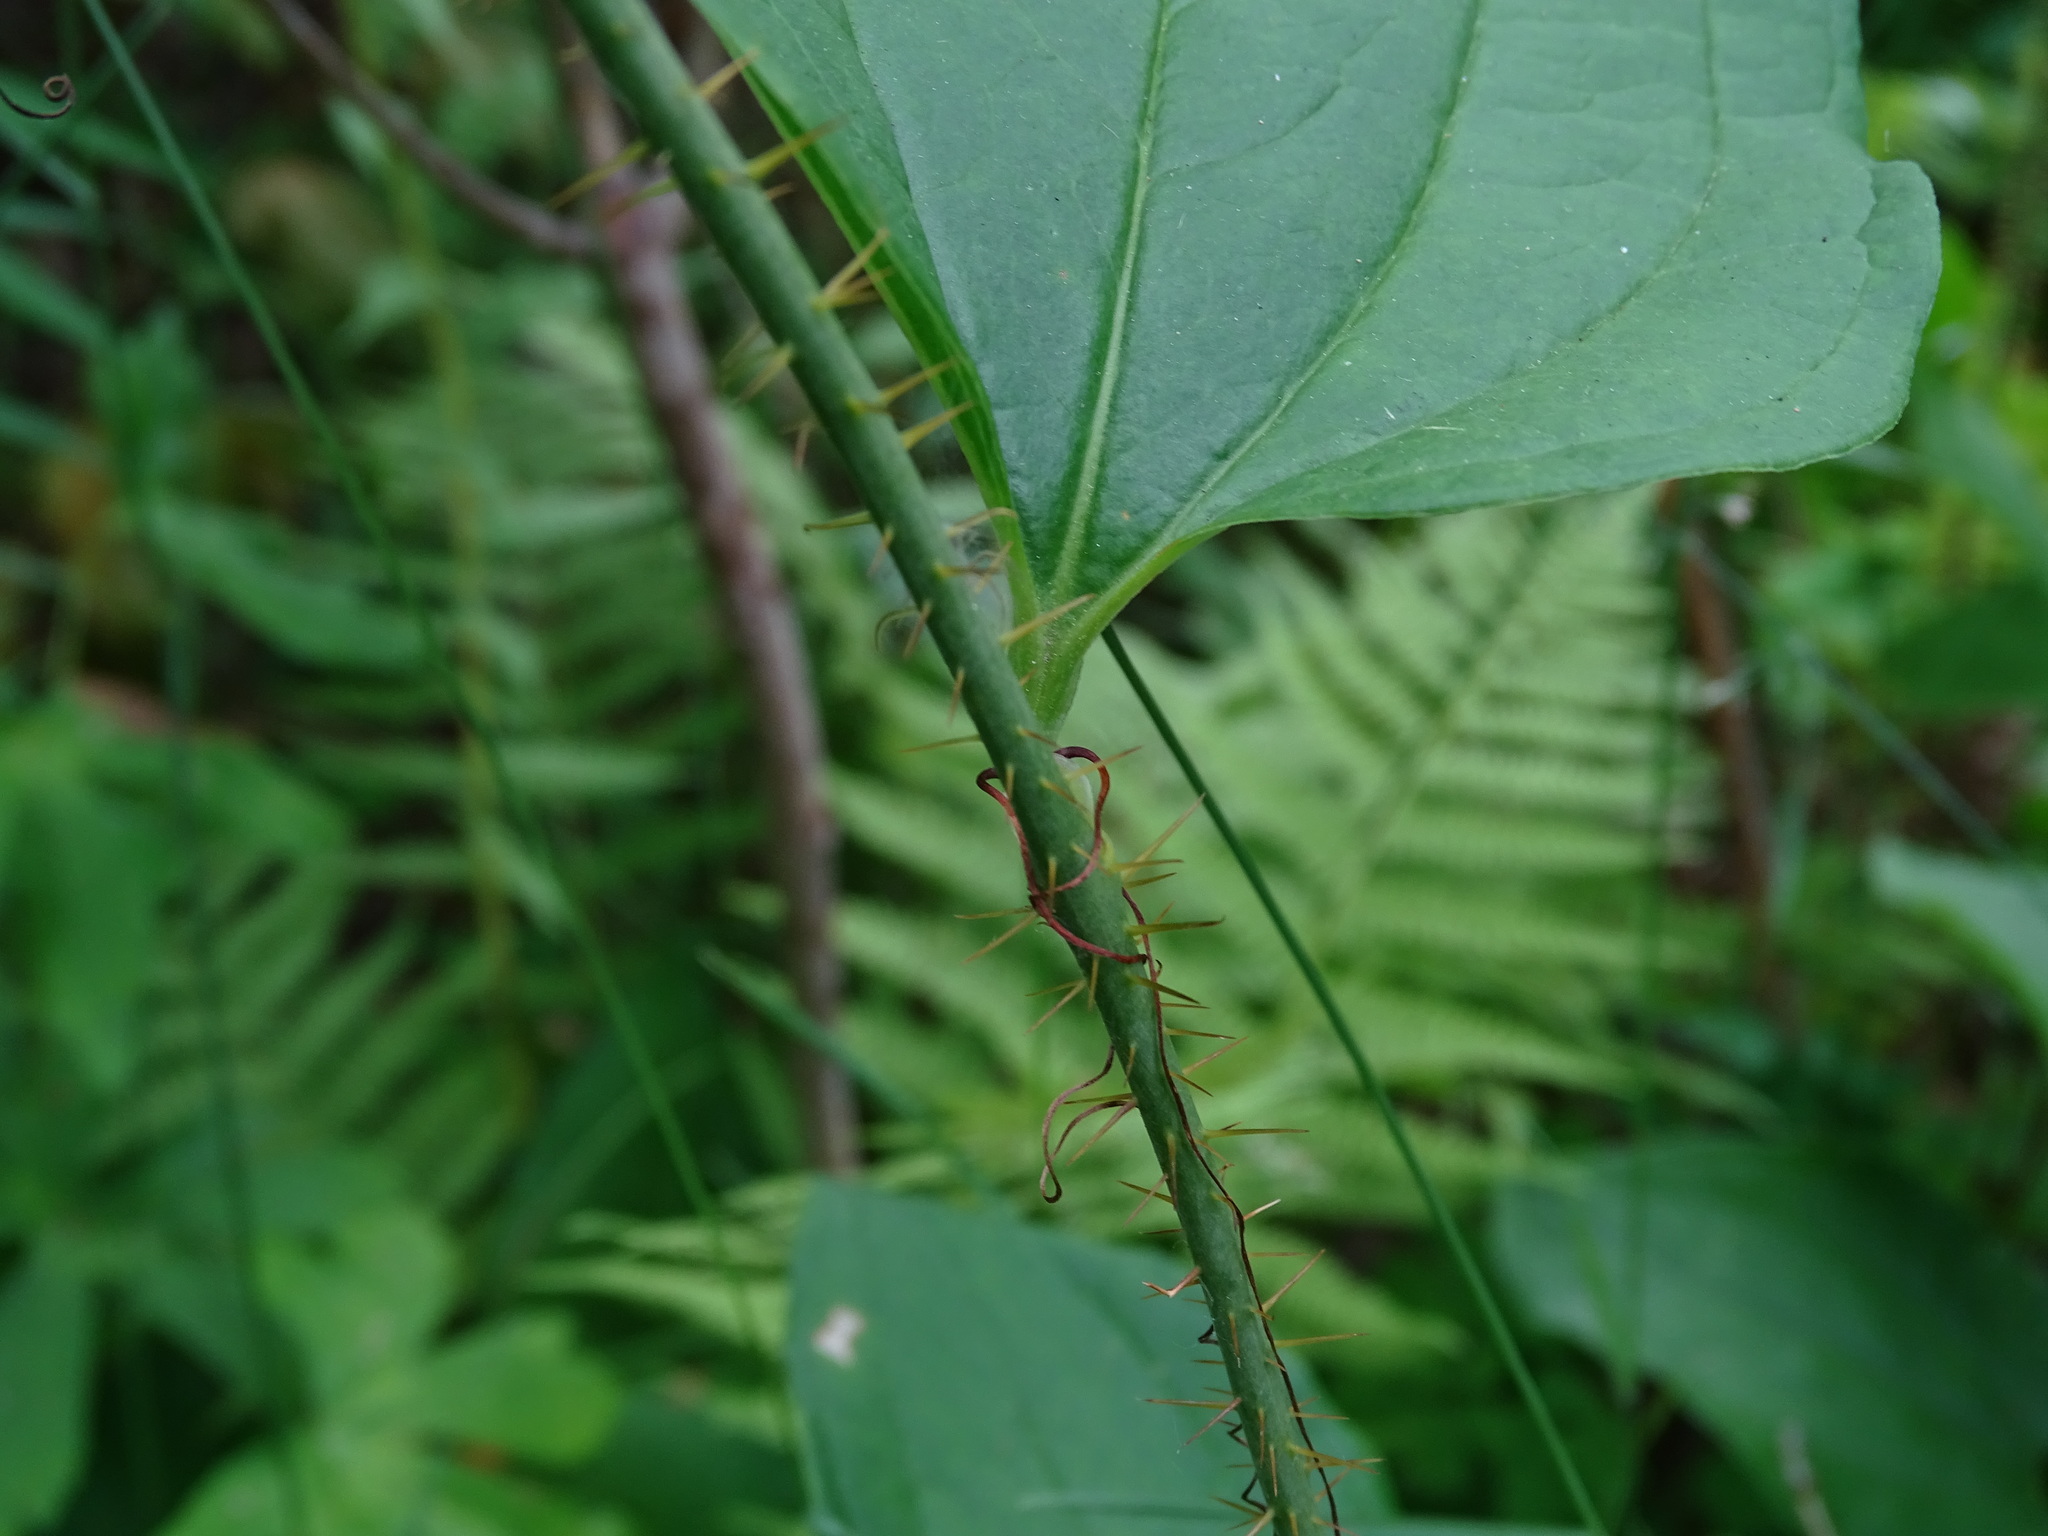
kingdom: Plantae
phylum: Tracheophyta
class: Liliopsida
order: Liliales
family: Smilacaceae
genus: Smilax
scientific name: Smilax tamnoides
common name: Hellfetter
